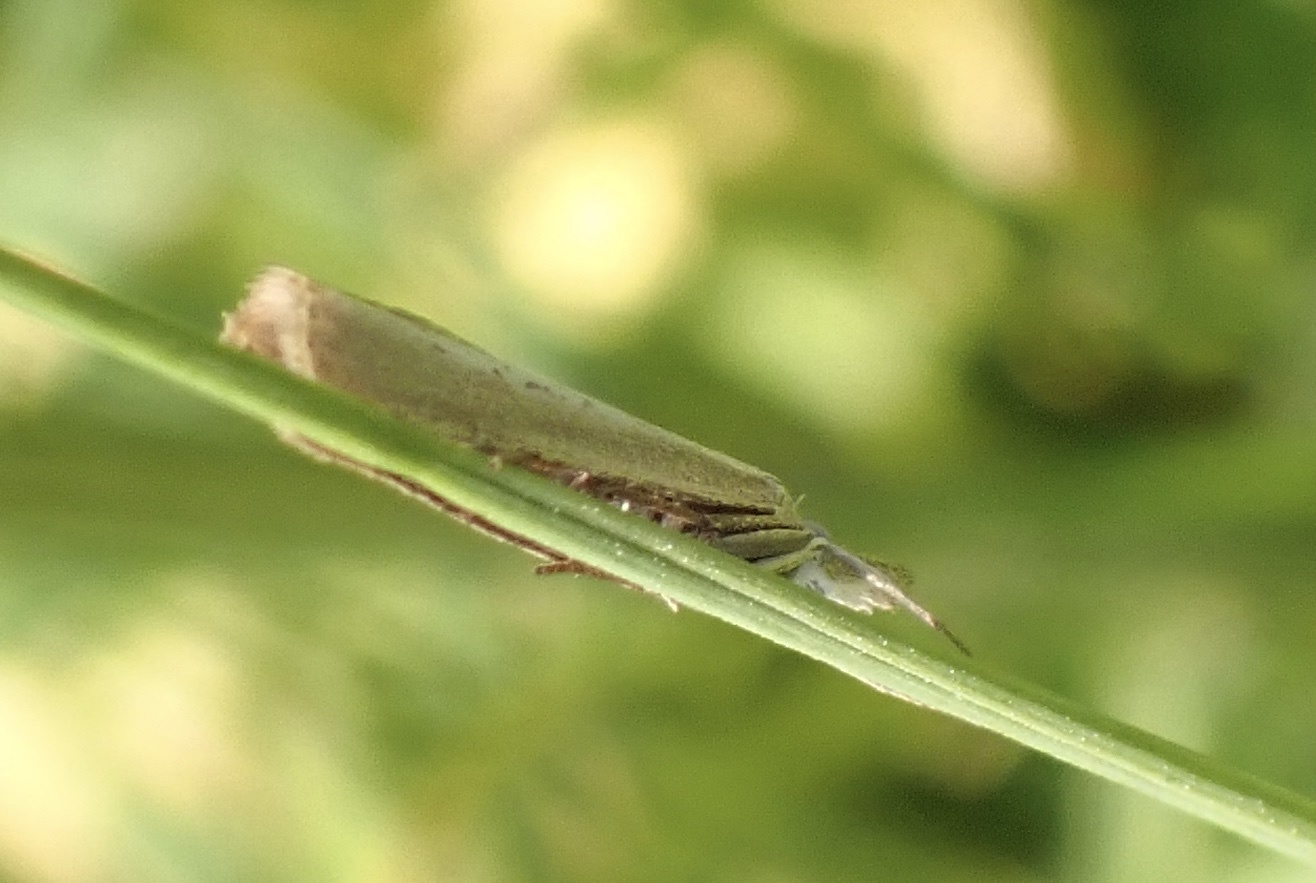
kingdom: Animalia
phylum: Arthropoda
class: Insecta
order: Lepidoptera
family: Crambidae
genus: Agriphila
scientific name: Agriphila straminella
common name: Straw grass-veneer
